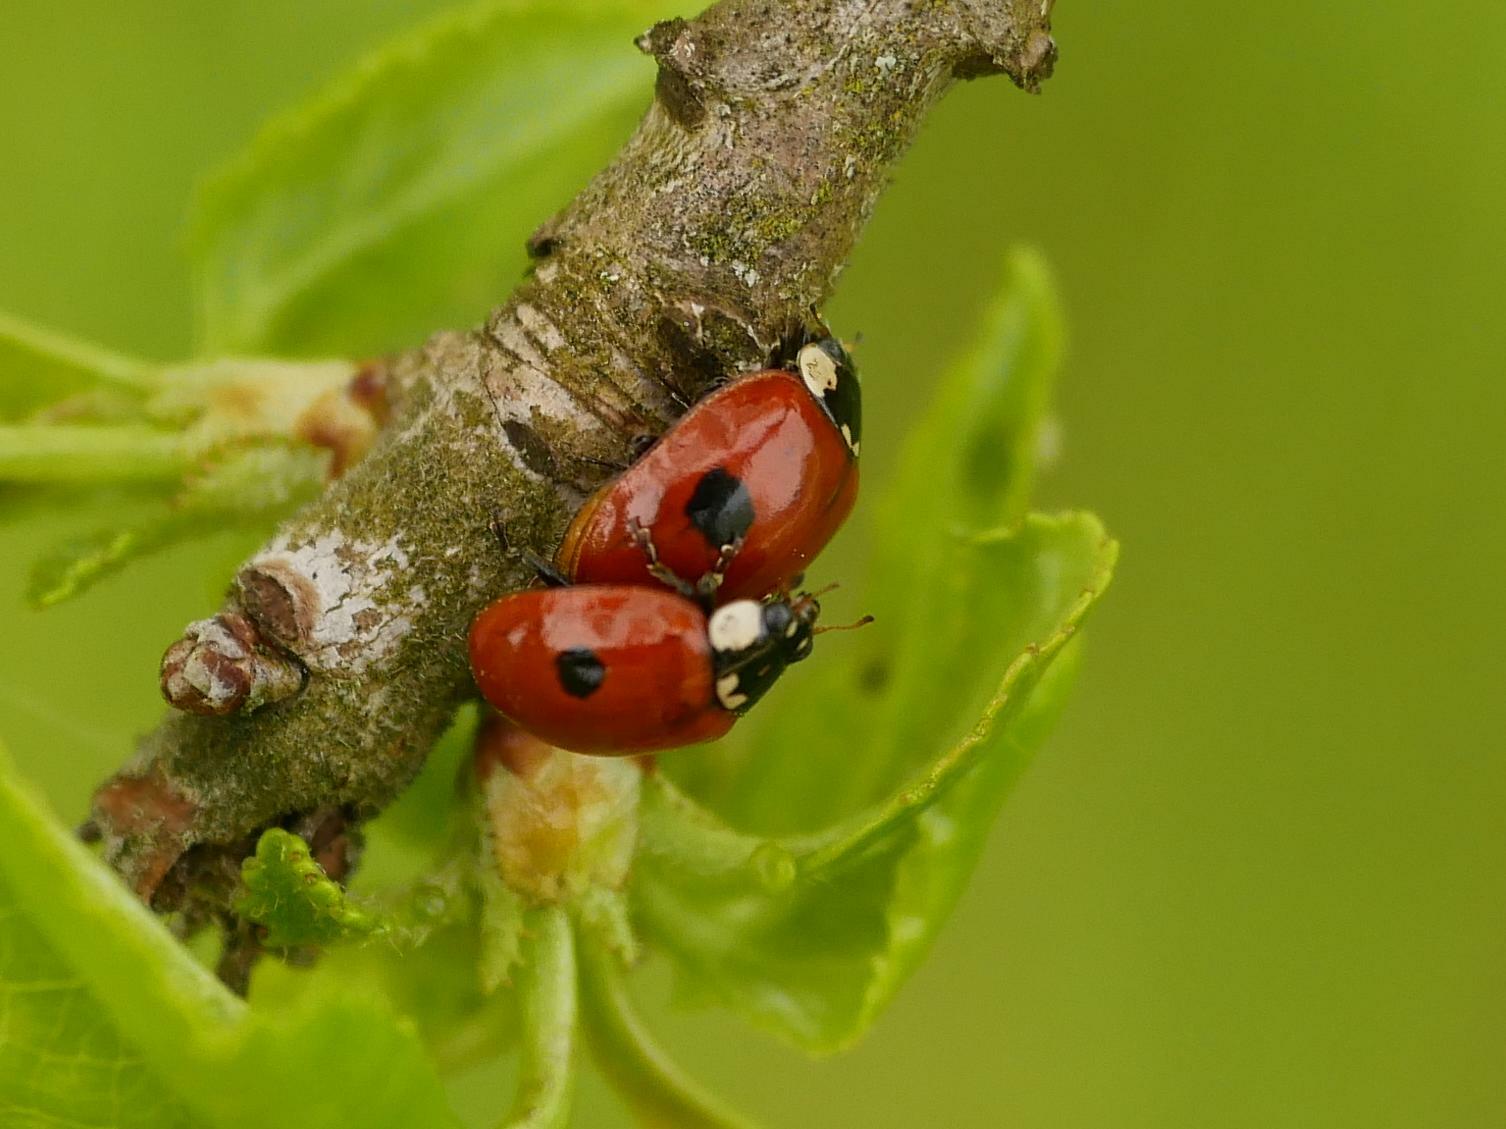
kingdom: Animalia
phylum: Arthropoda
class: Insecta
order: Coleoptera
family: Coccinellidae
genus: Adalia
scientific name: Adalia bipunctata
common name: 2-spot ladybird
